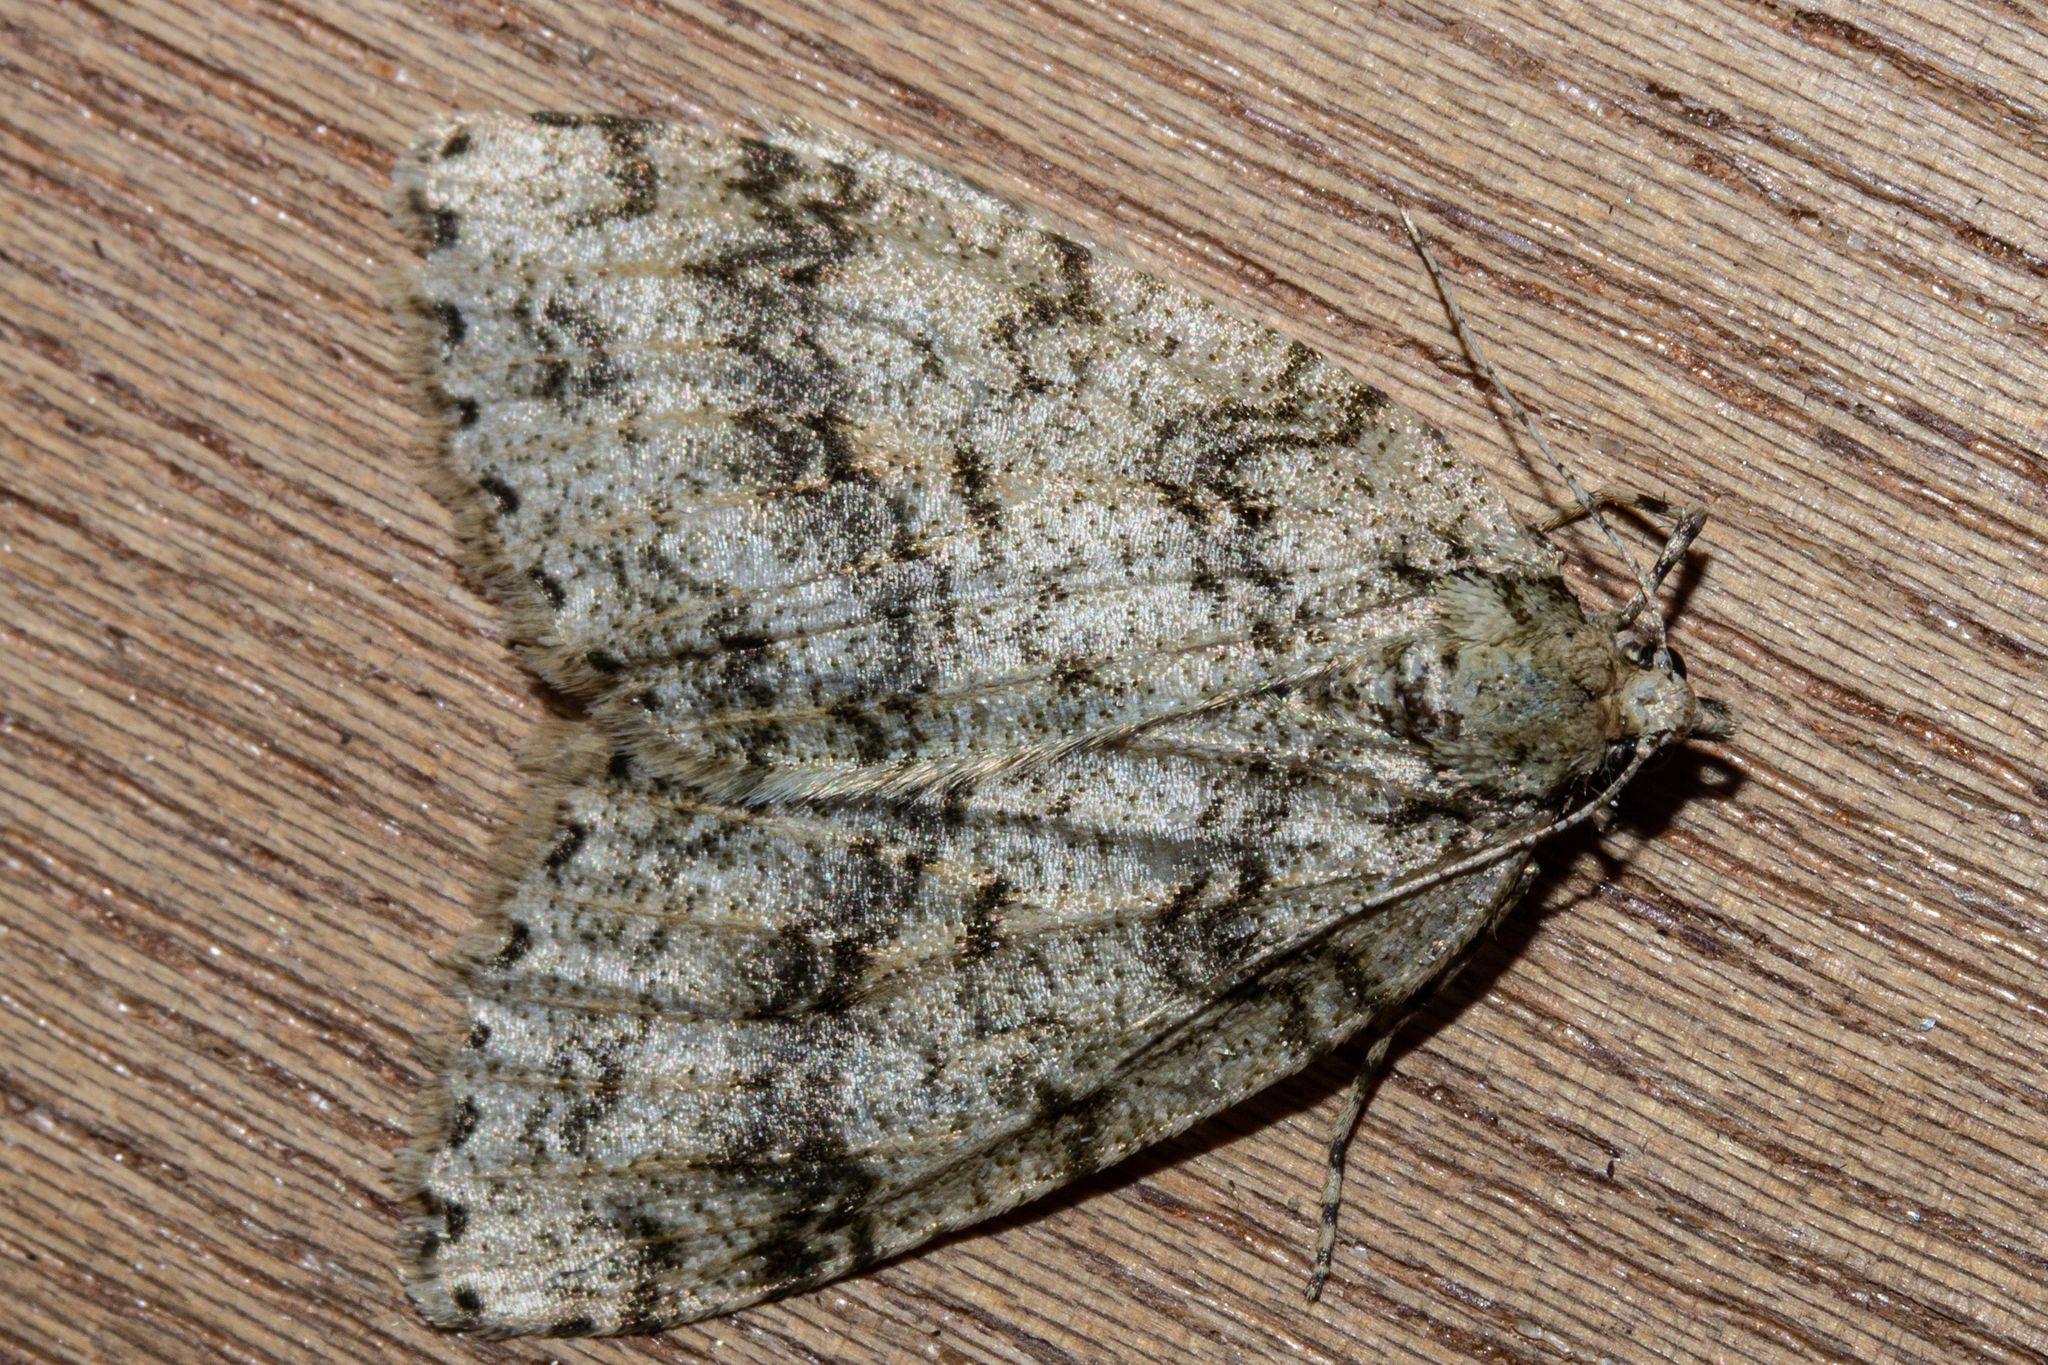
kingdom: Animalia
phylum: Arthropoda
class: Insecta
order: Lepidoptera
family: Geometridae
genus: Pseudocoremia
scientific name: Pseudocoremia rudisata
